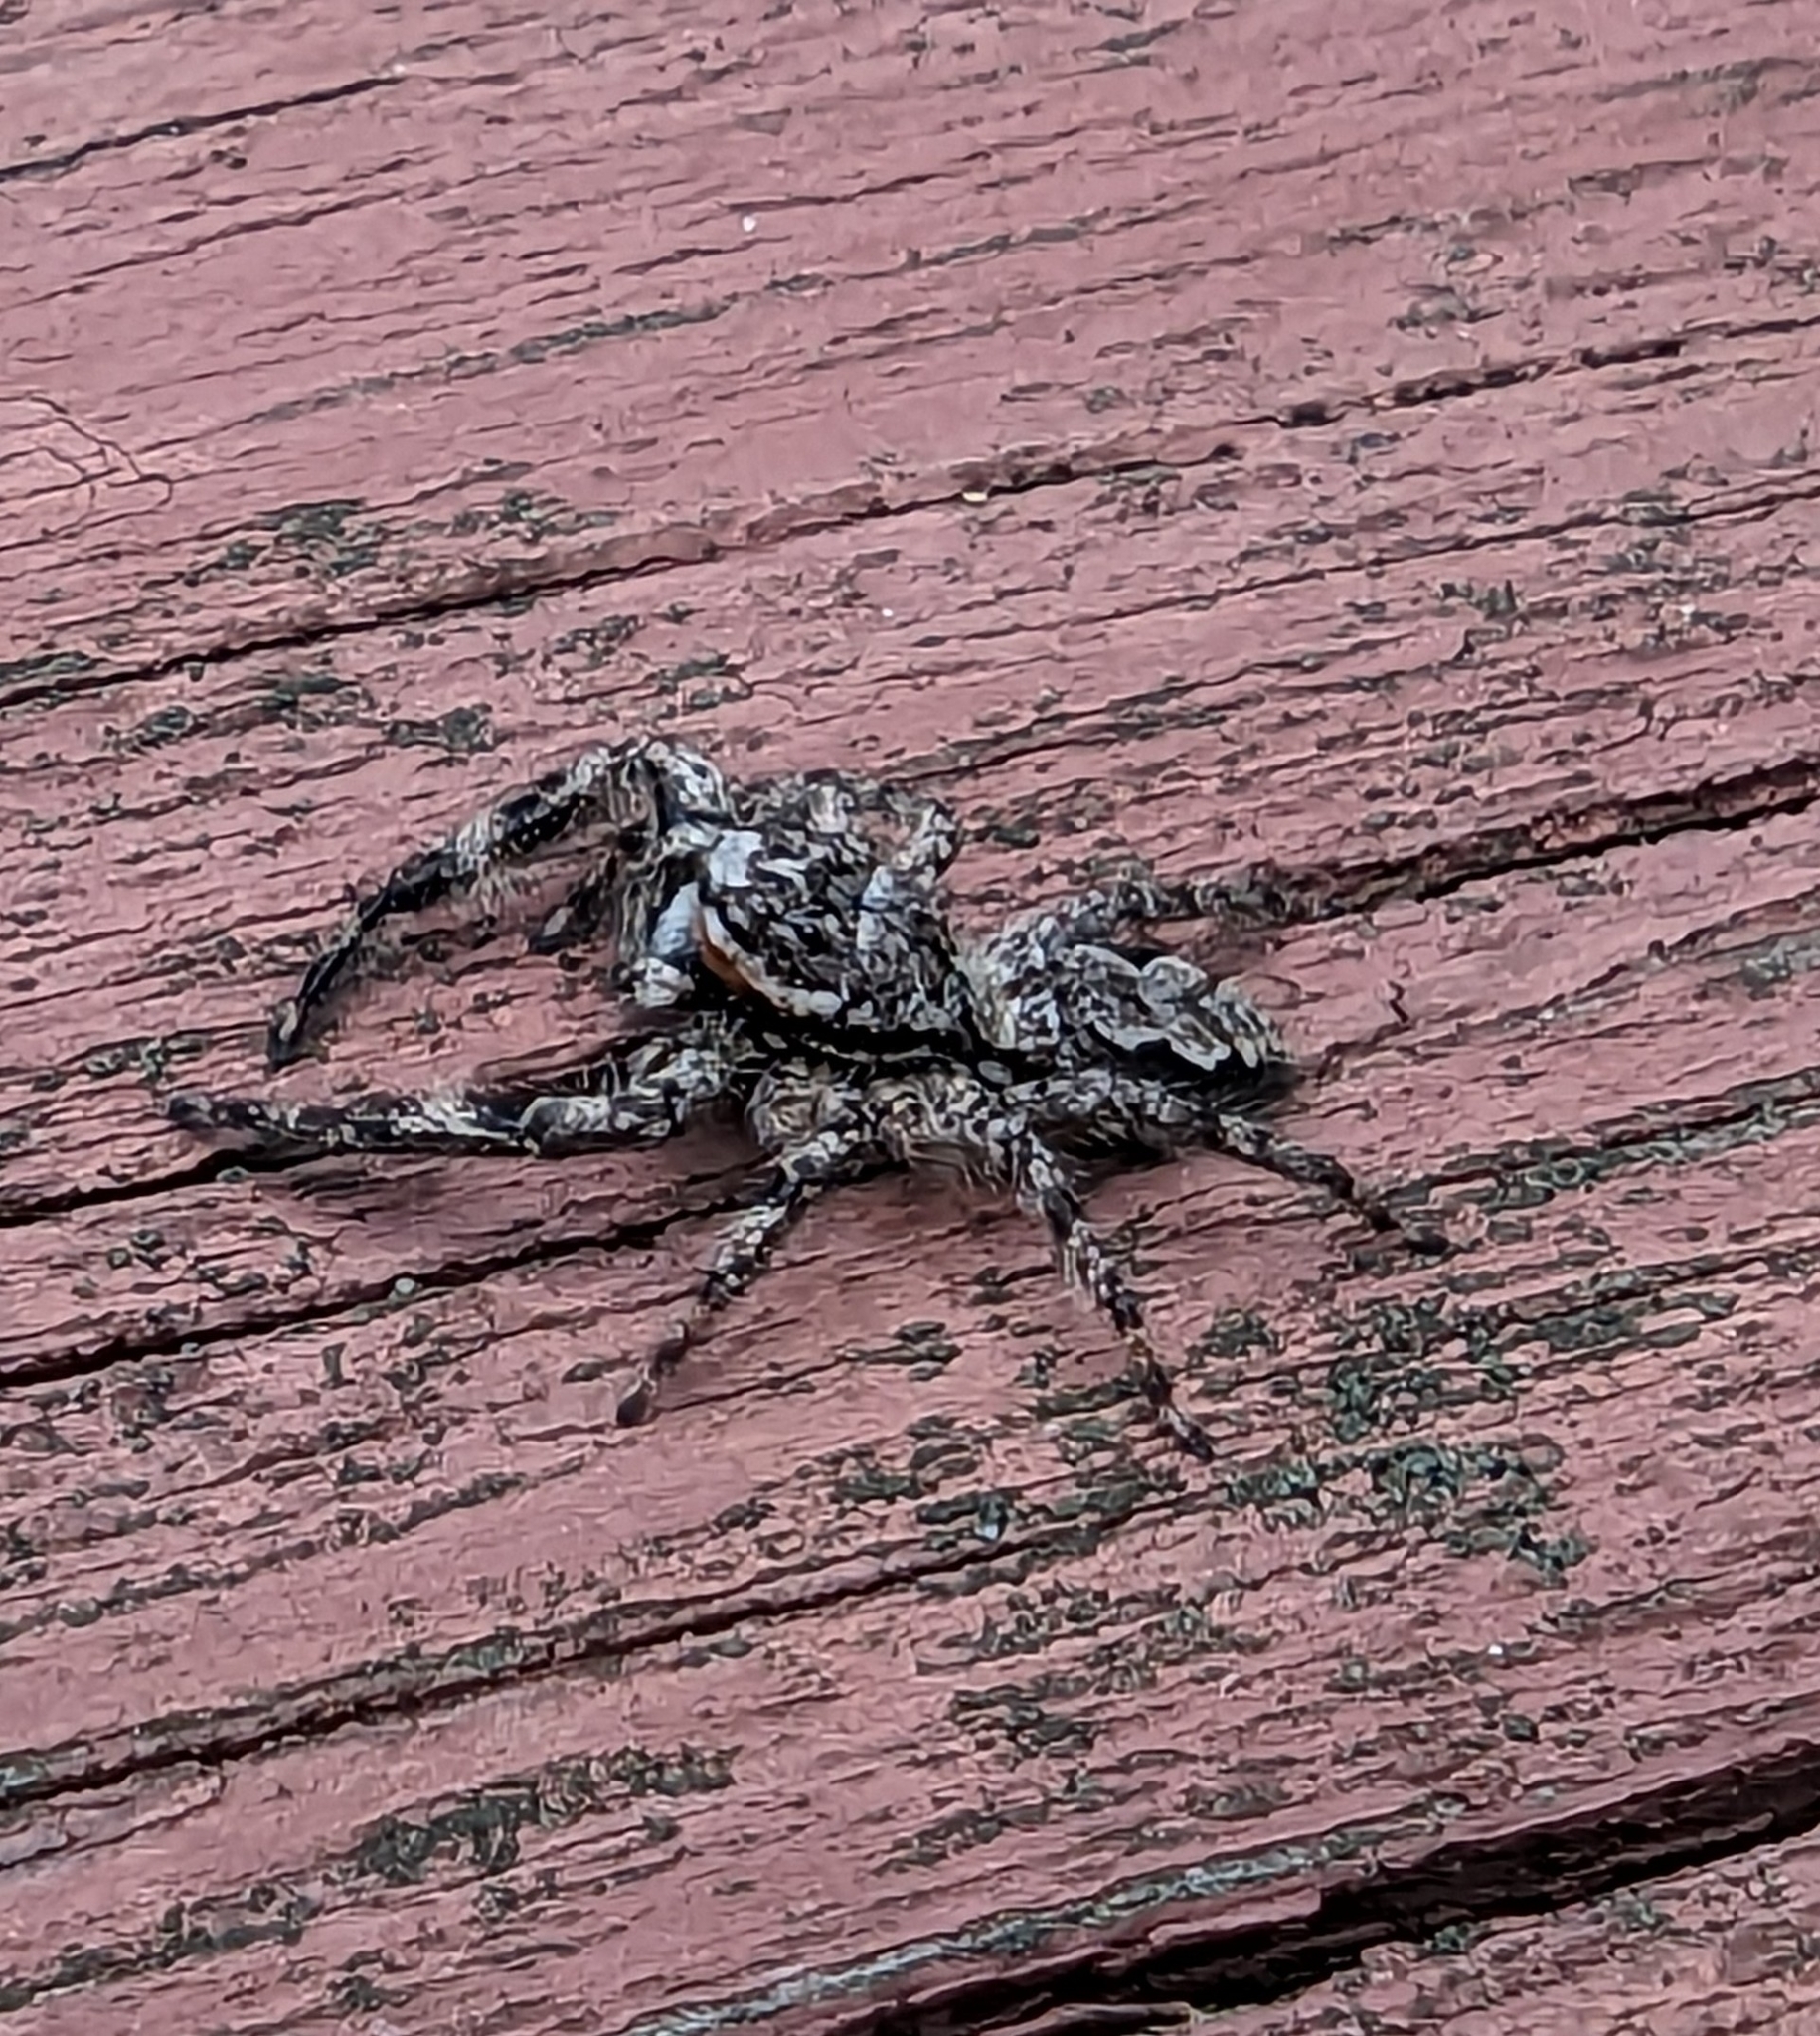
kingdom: Animalia
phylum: Arthropoda
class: Arachnida
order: Araneae
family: Salticidae
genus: Platycryptus
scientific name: Platycryptus undatus
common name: Tan jumping spider
